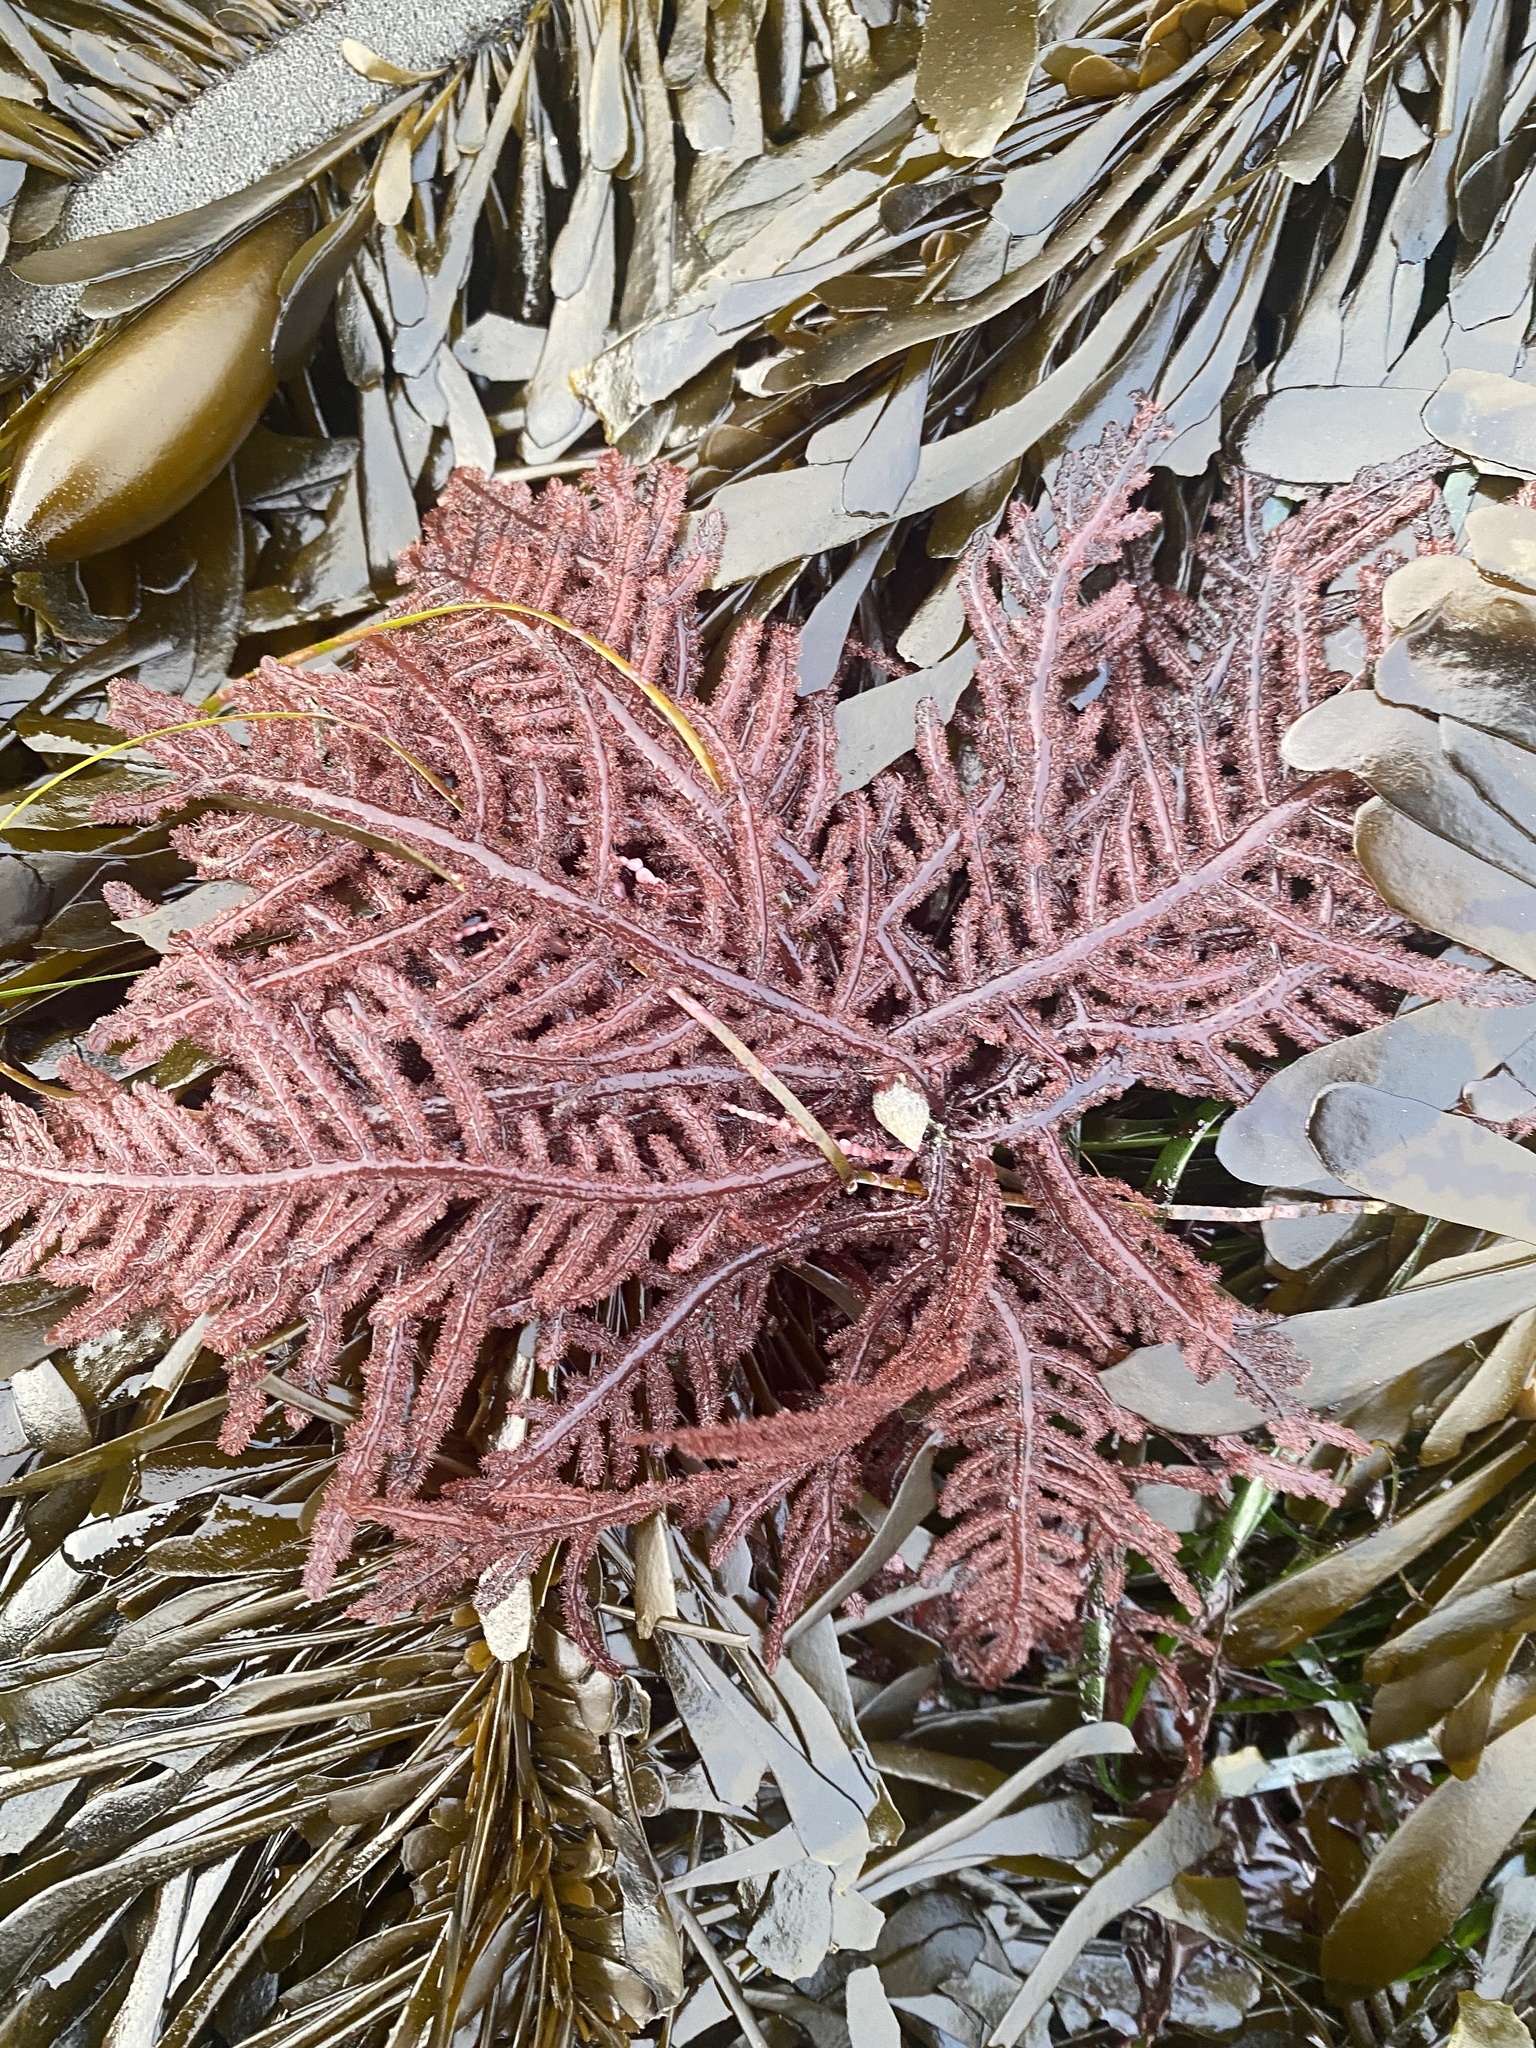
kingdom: Plantae
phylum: Rhodophyta
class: Florideophyceae
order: Ceramiales
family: Wrangeliaceae
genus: Neoptilota
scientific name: Neoptilota densa
